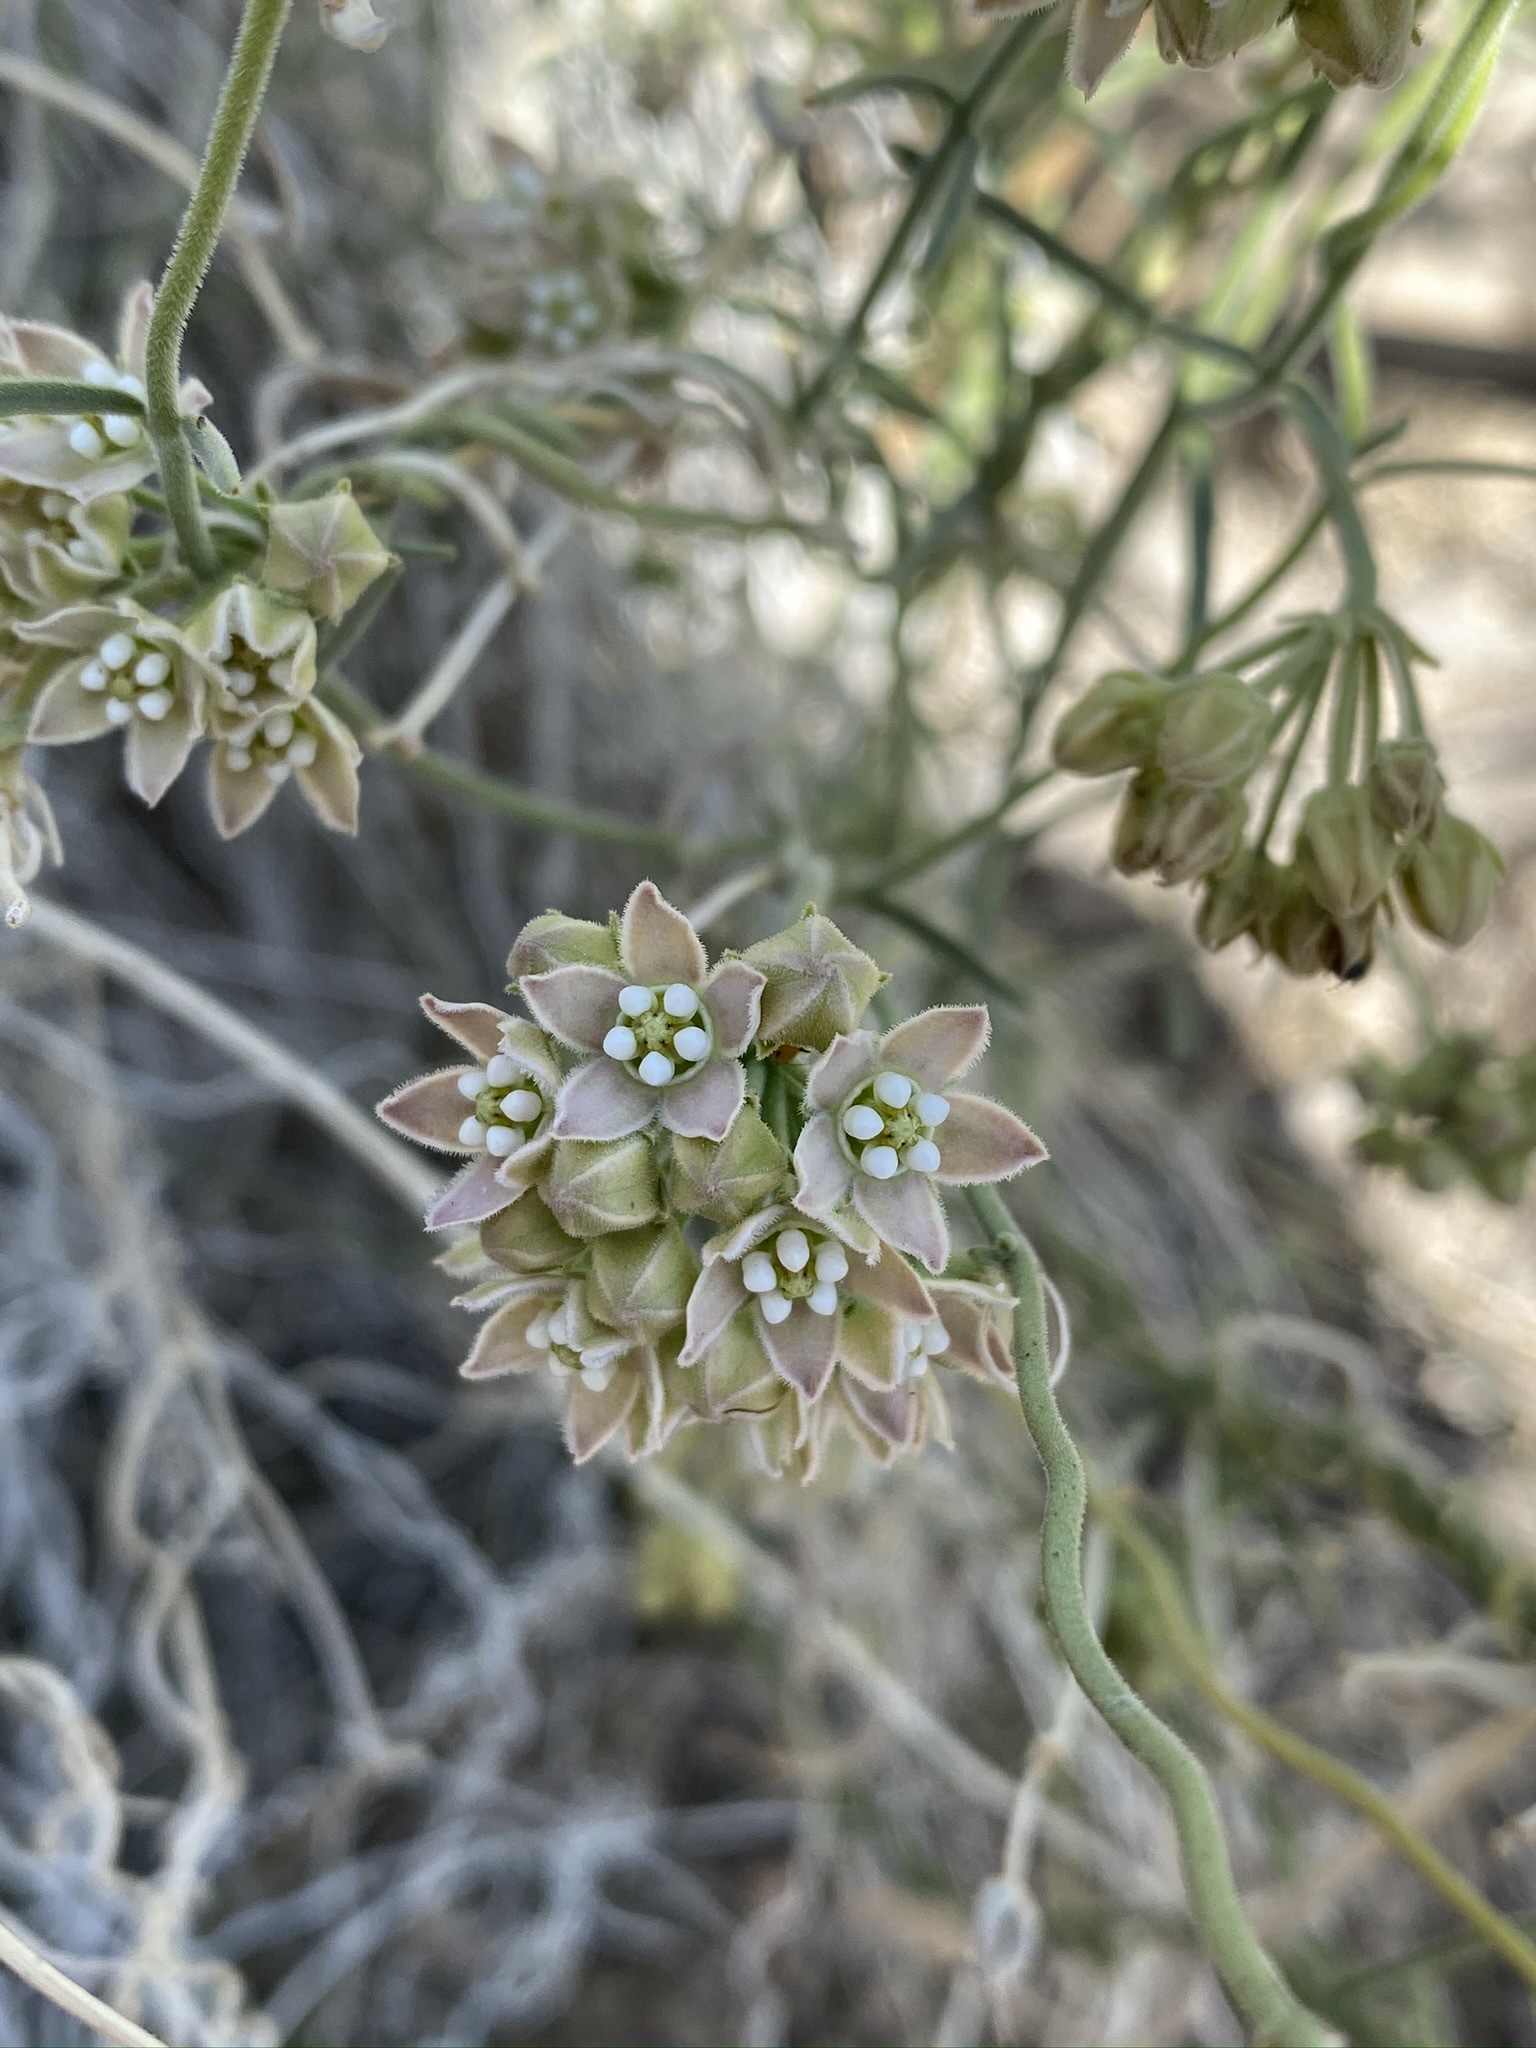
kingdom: Plantae
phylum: Tracheophyta
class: Magnoliopsida
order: Gentianales
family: Apocynaceae
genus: Funastrum
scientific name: Funastrum hirtellum
